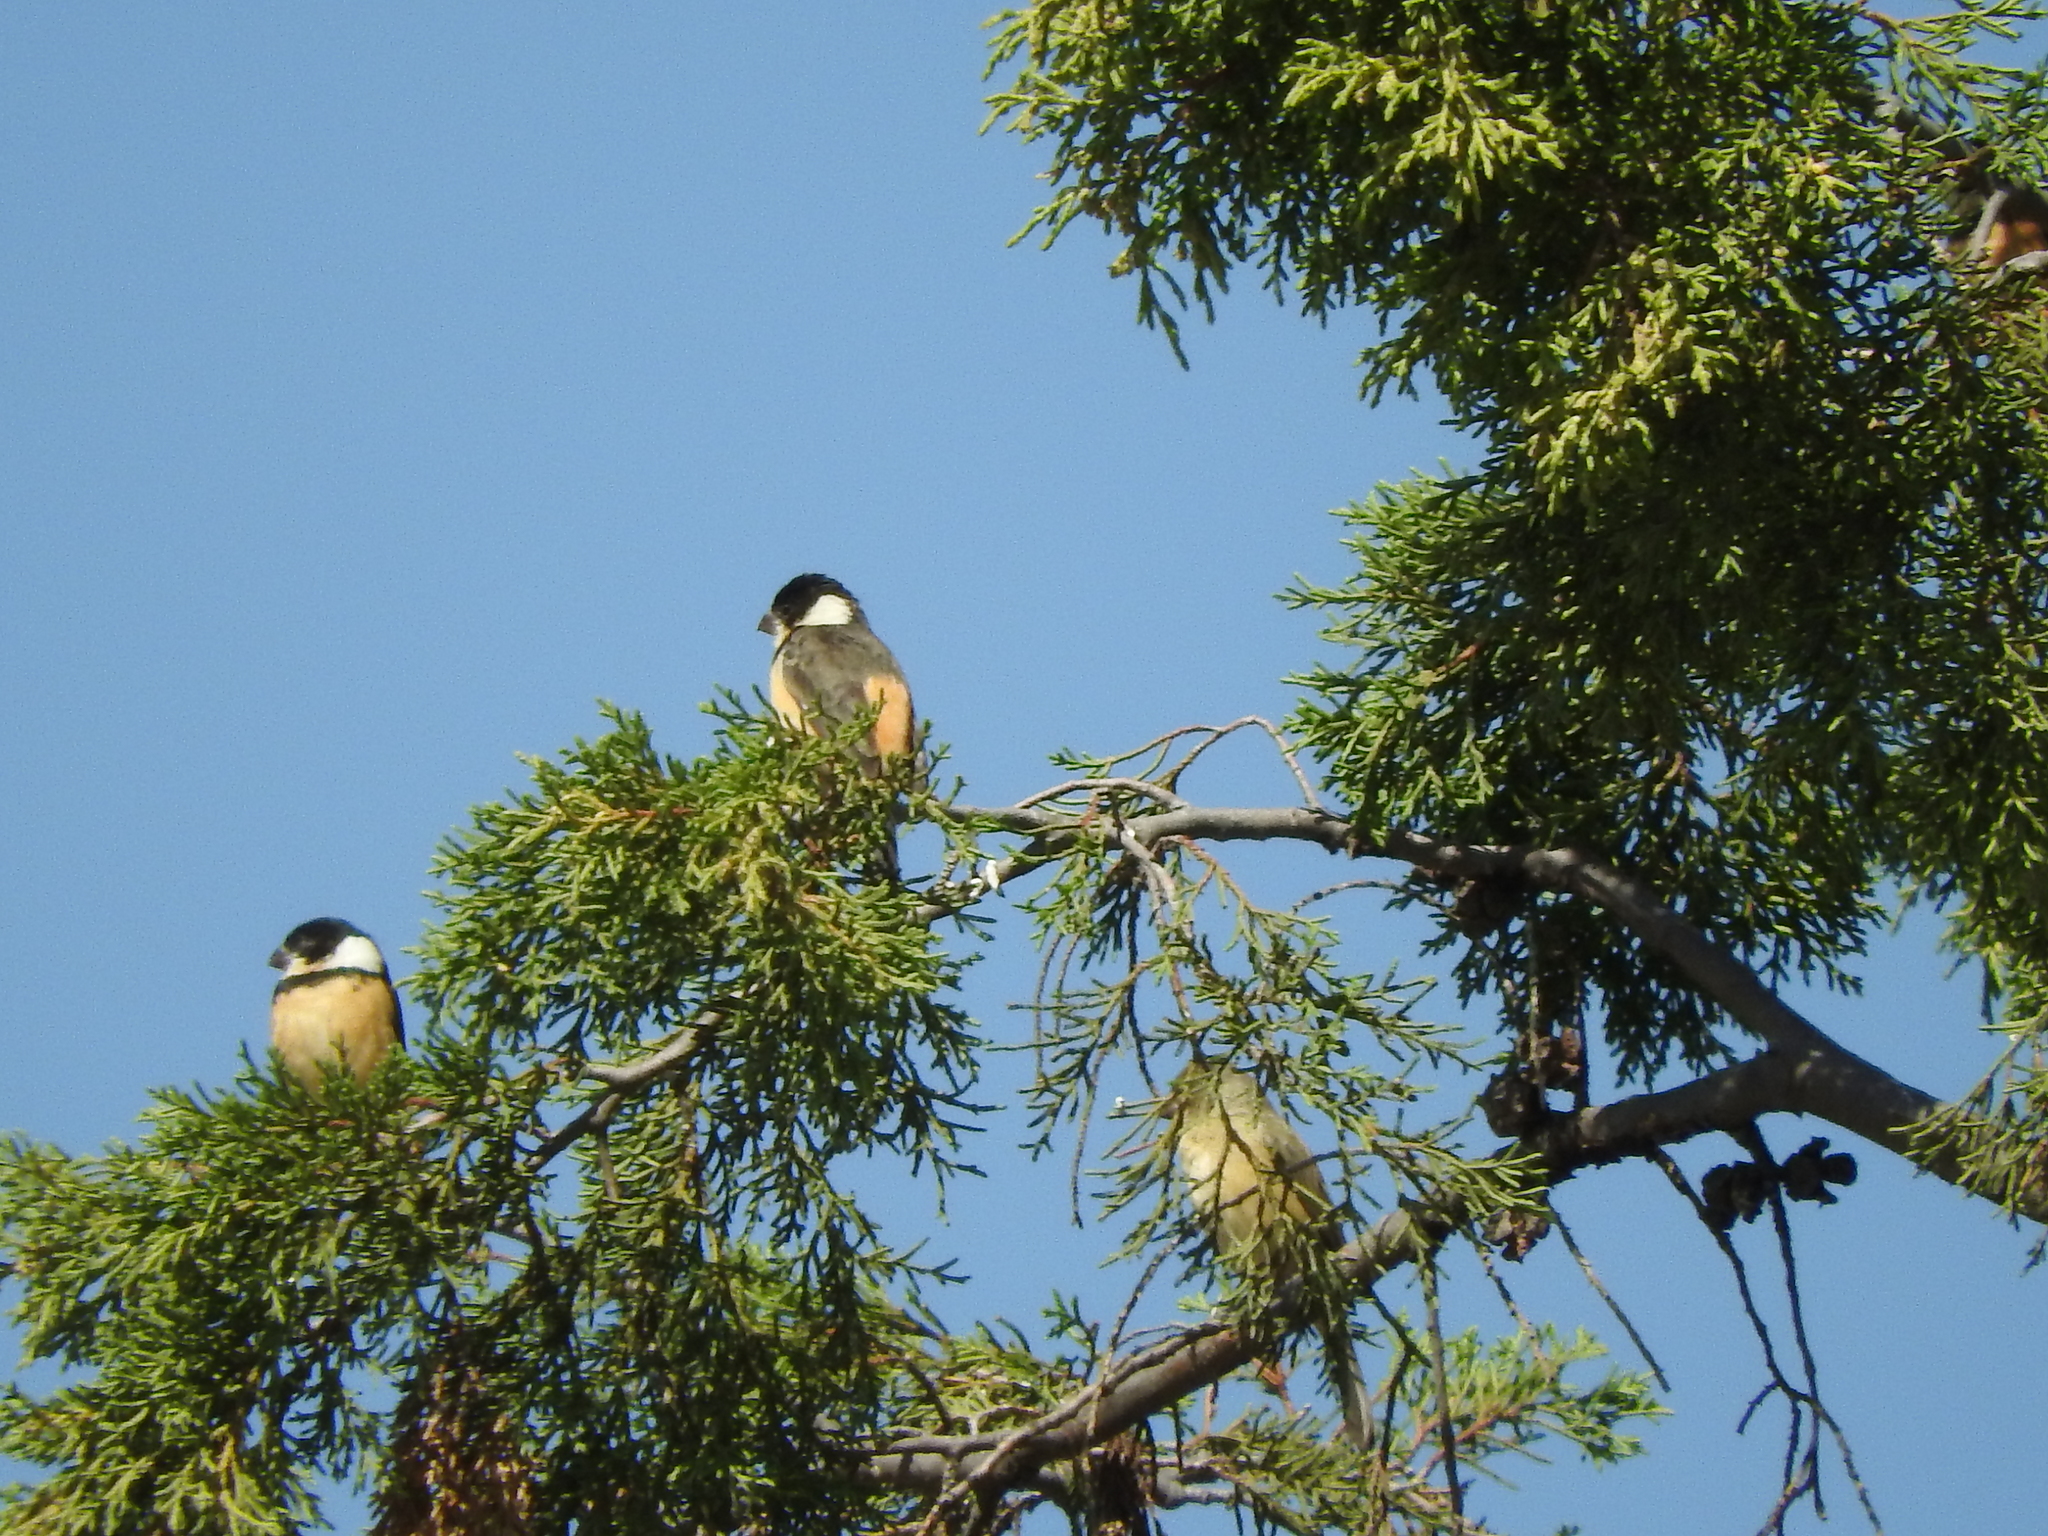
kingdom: Animalia
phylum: Chordata
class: Aves
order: Passeriformes
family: Thraupidae
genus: Sporophila
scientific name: Sporophila torqueola
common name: White-collared seedeater
